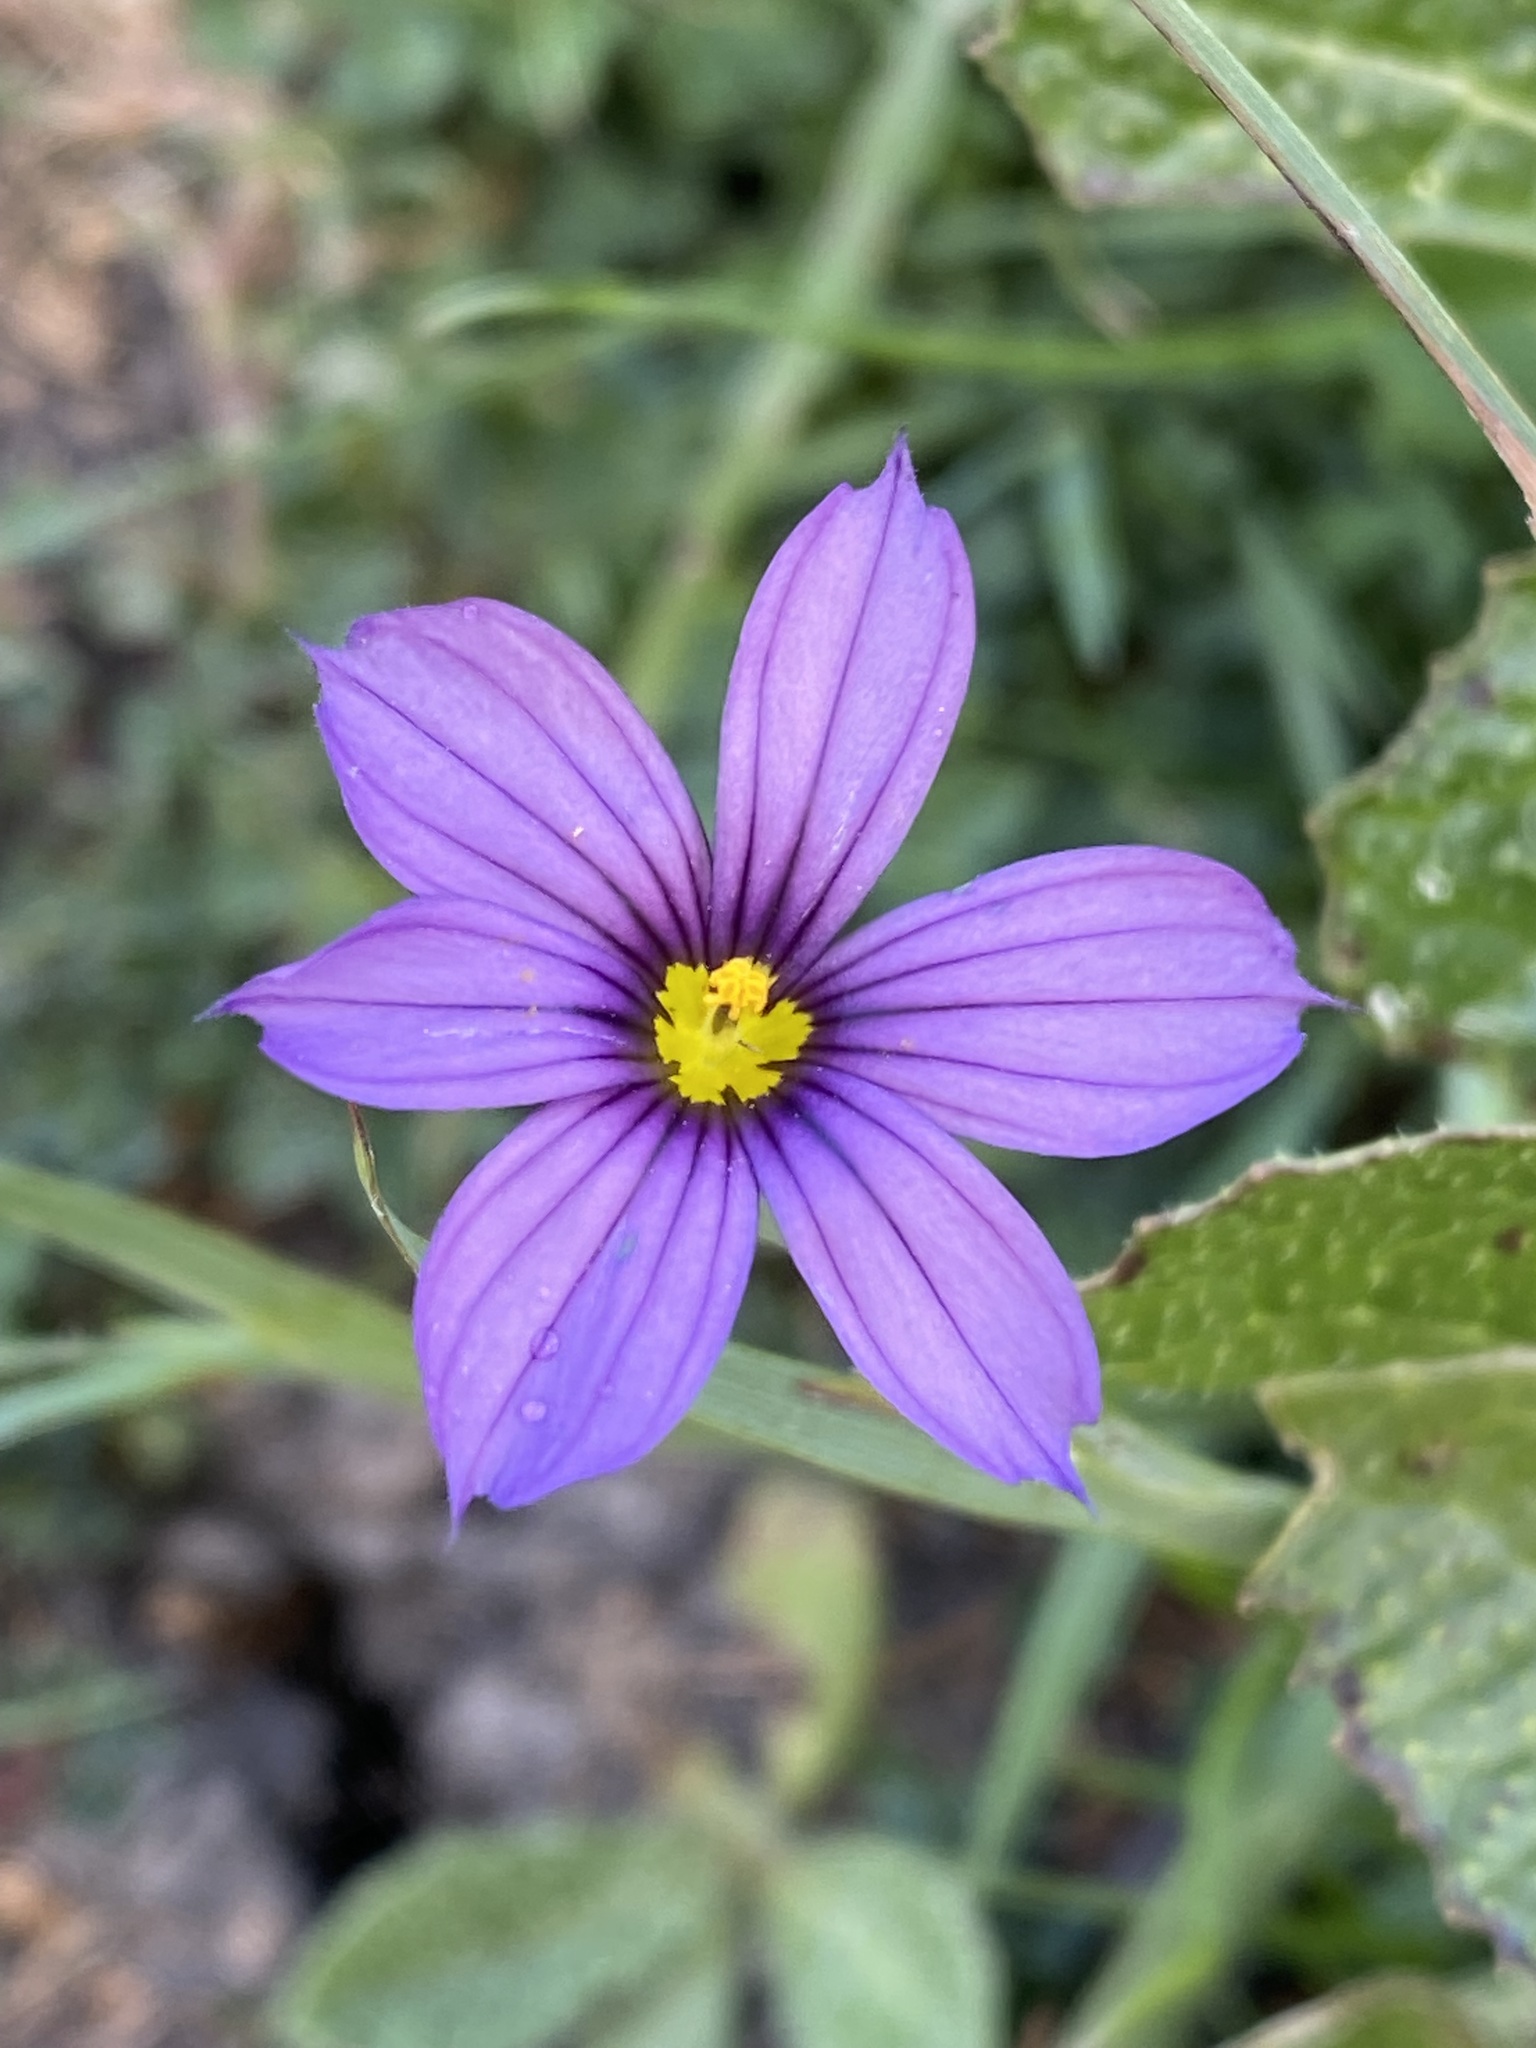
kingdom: Plantae
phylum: Tracheophyta
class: Liliopsida
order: Asparagales
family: Iridaceae
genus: Sisyrinchium
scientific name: Sisyrinchium bellum
